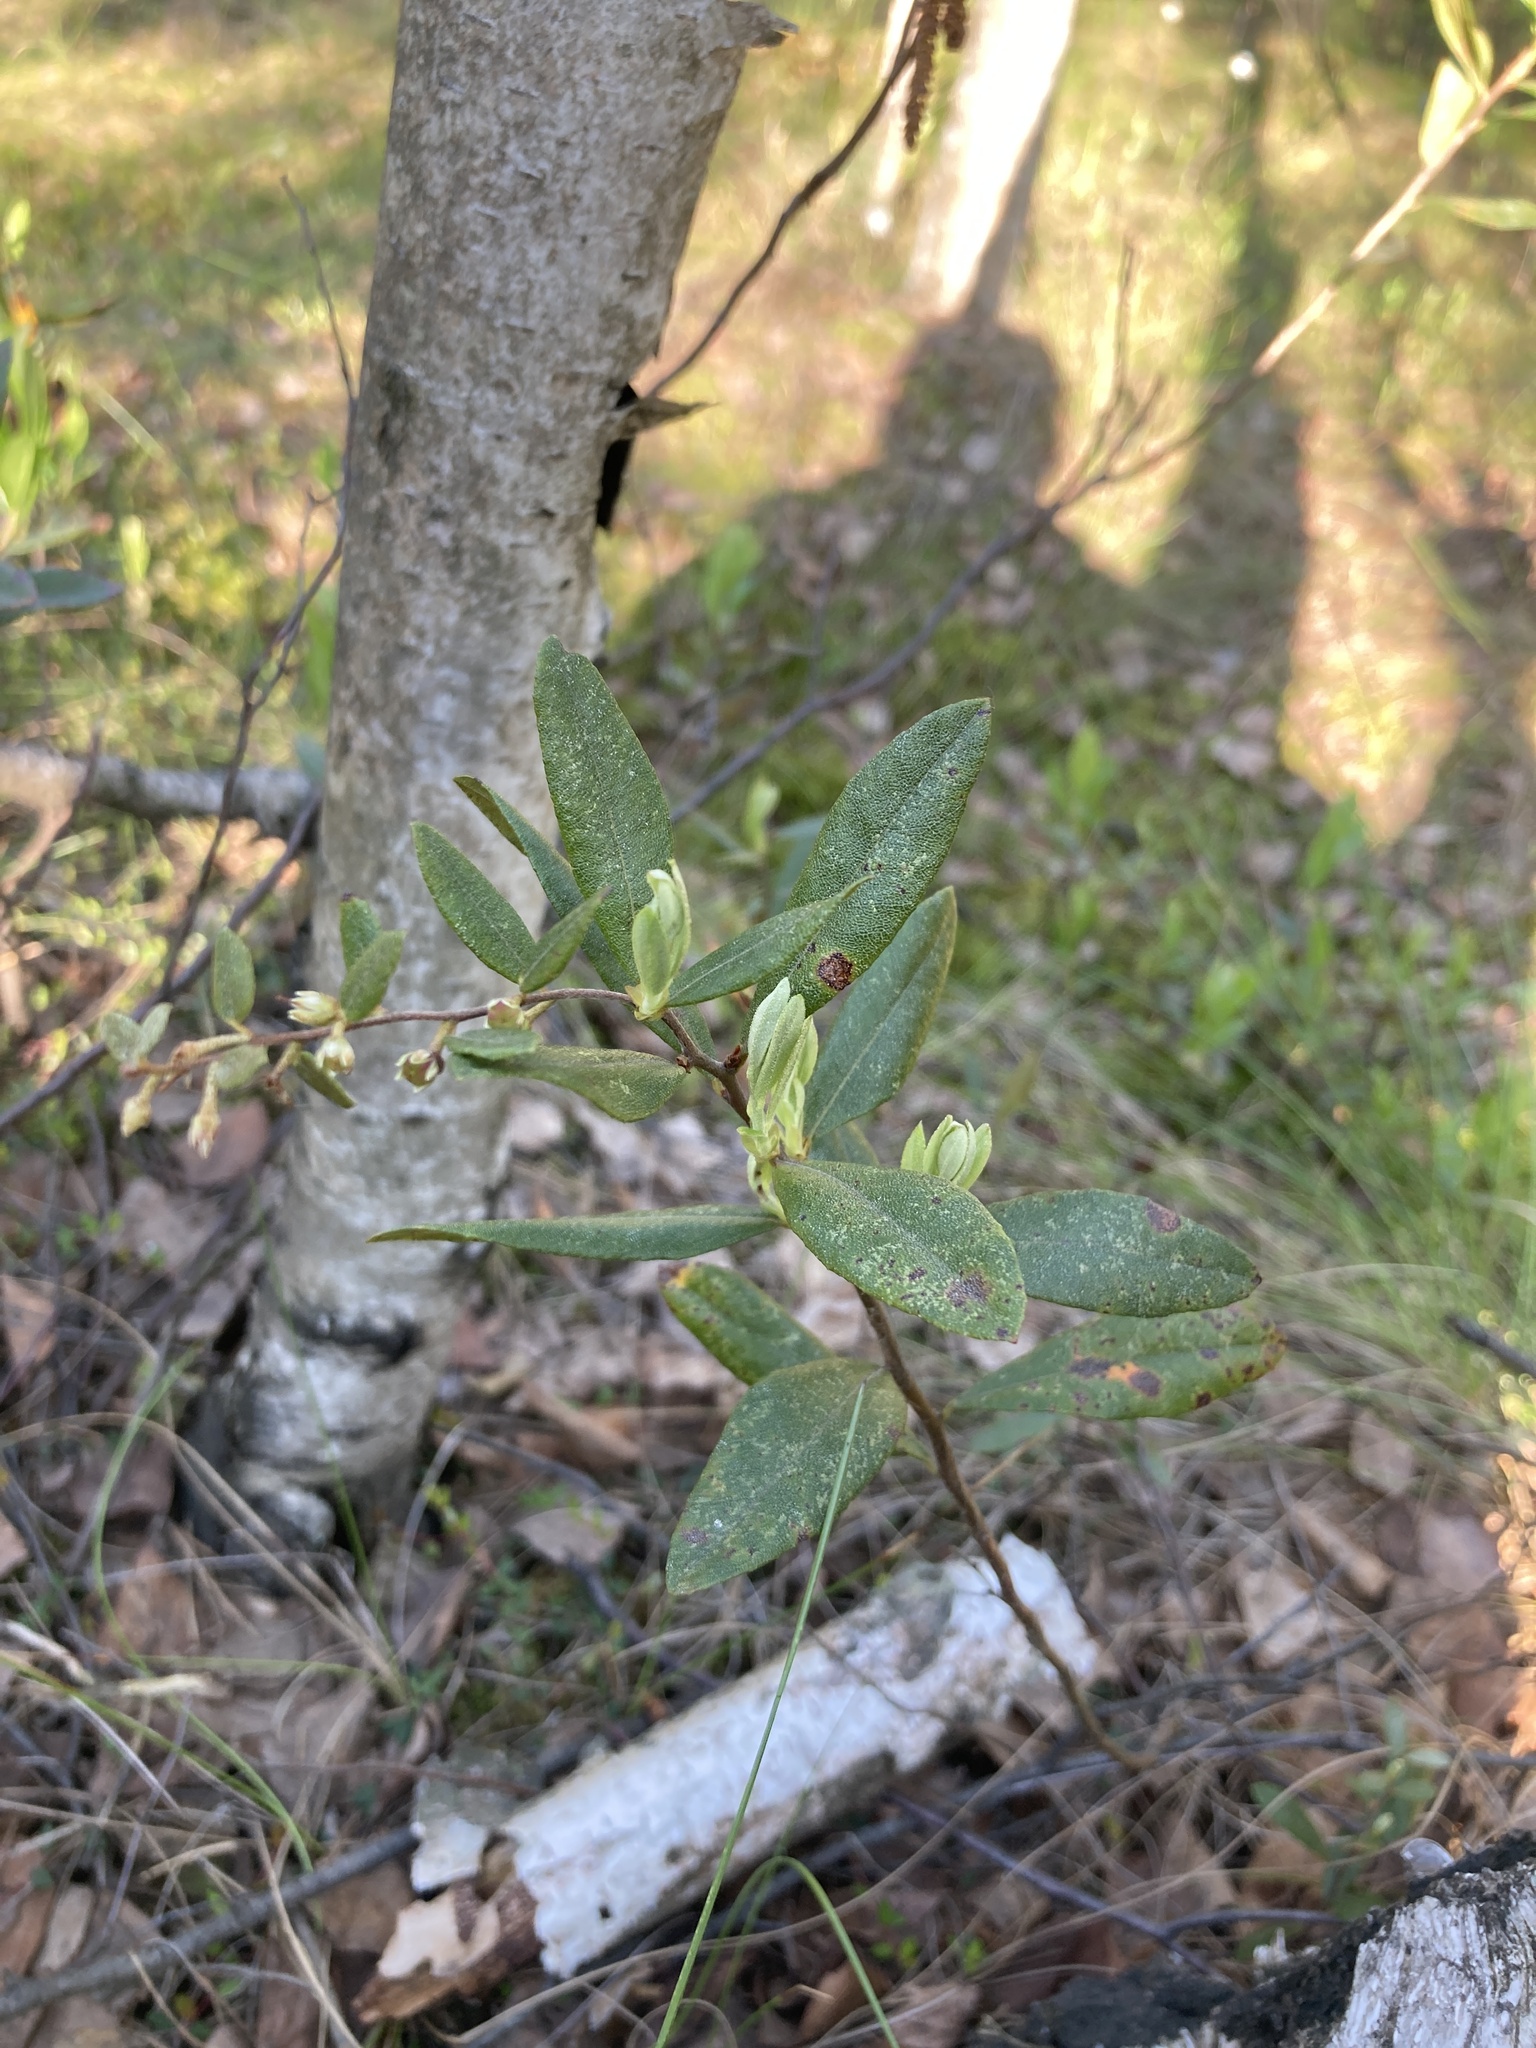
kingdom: Plantae
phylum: Tracheophyta
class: Magnoliopsida
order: Ericales
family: Ericaceae
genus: Chamaedaphne
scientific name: Chamaedaphne calyculata
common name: Leatherleaf
